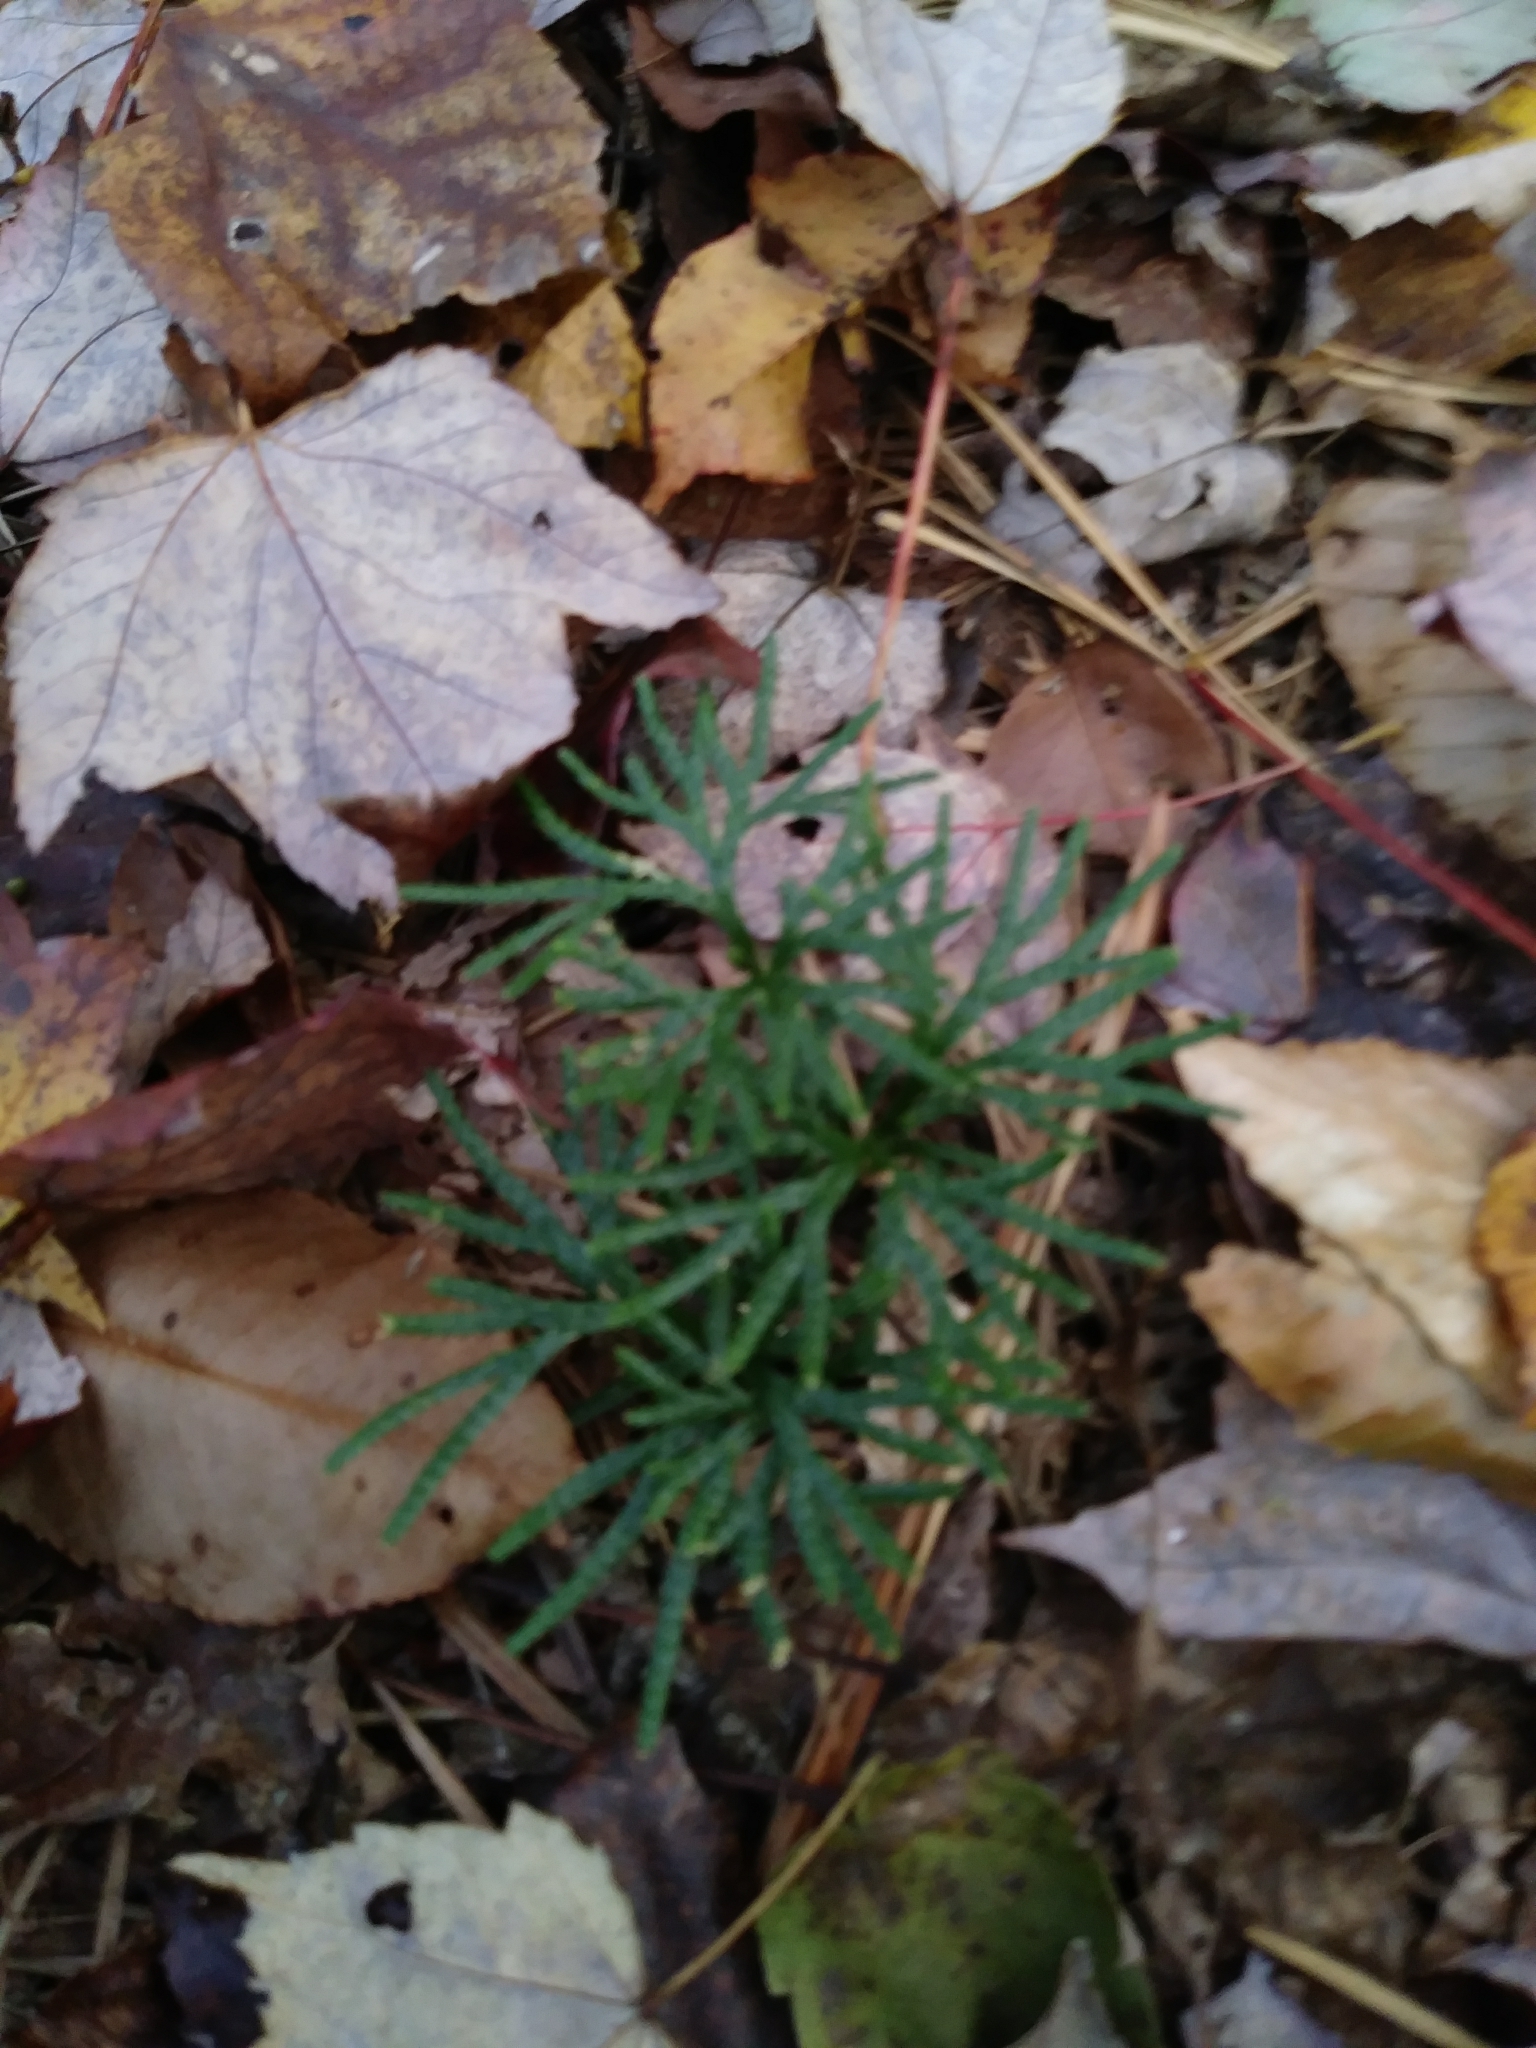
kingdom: Plantae
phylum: Tracheophyta
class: Lycopodiopsida
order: Lycopodiales
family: Lycopodiaceae
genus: Diphasiastrum
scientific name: Diphasiastrum digitatum
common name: Southern running-pine
